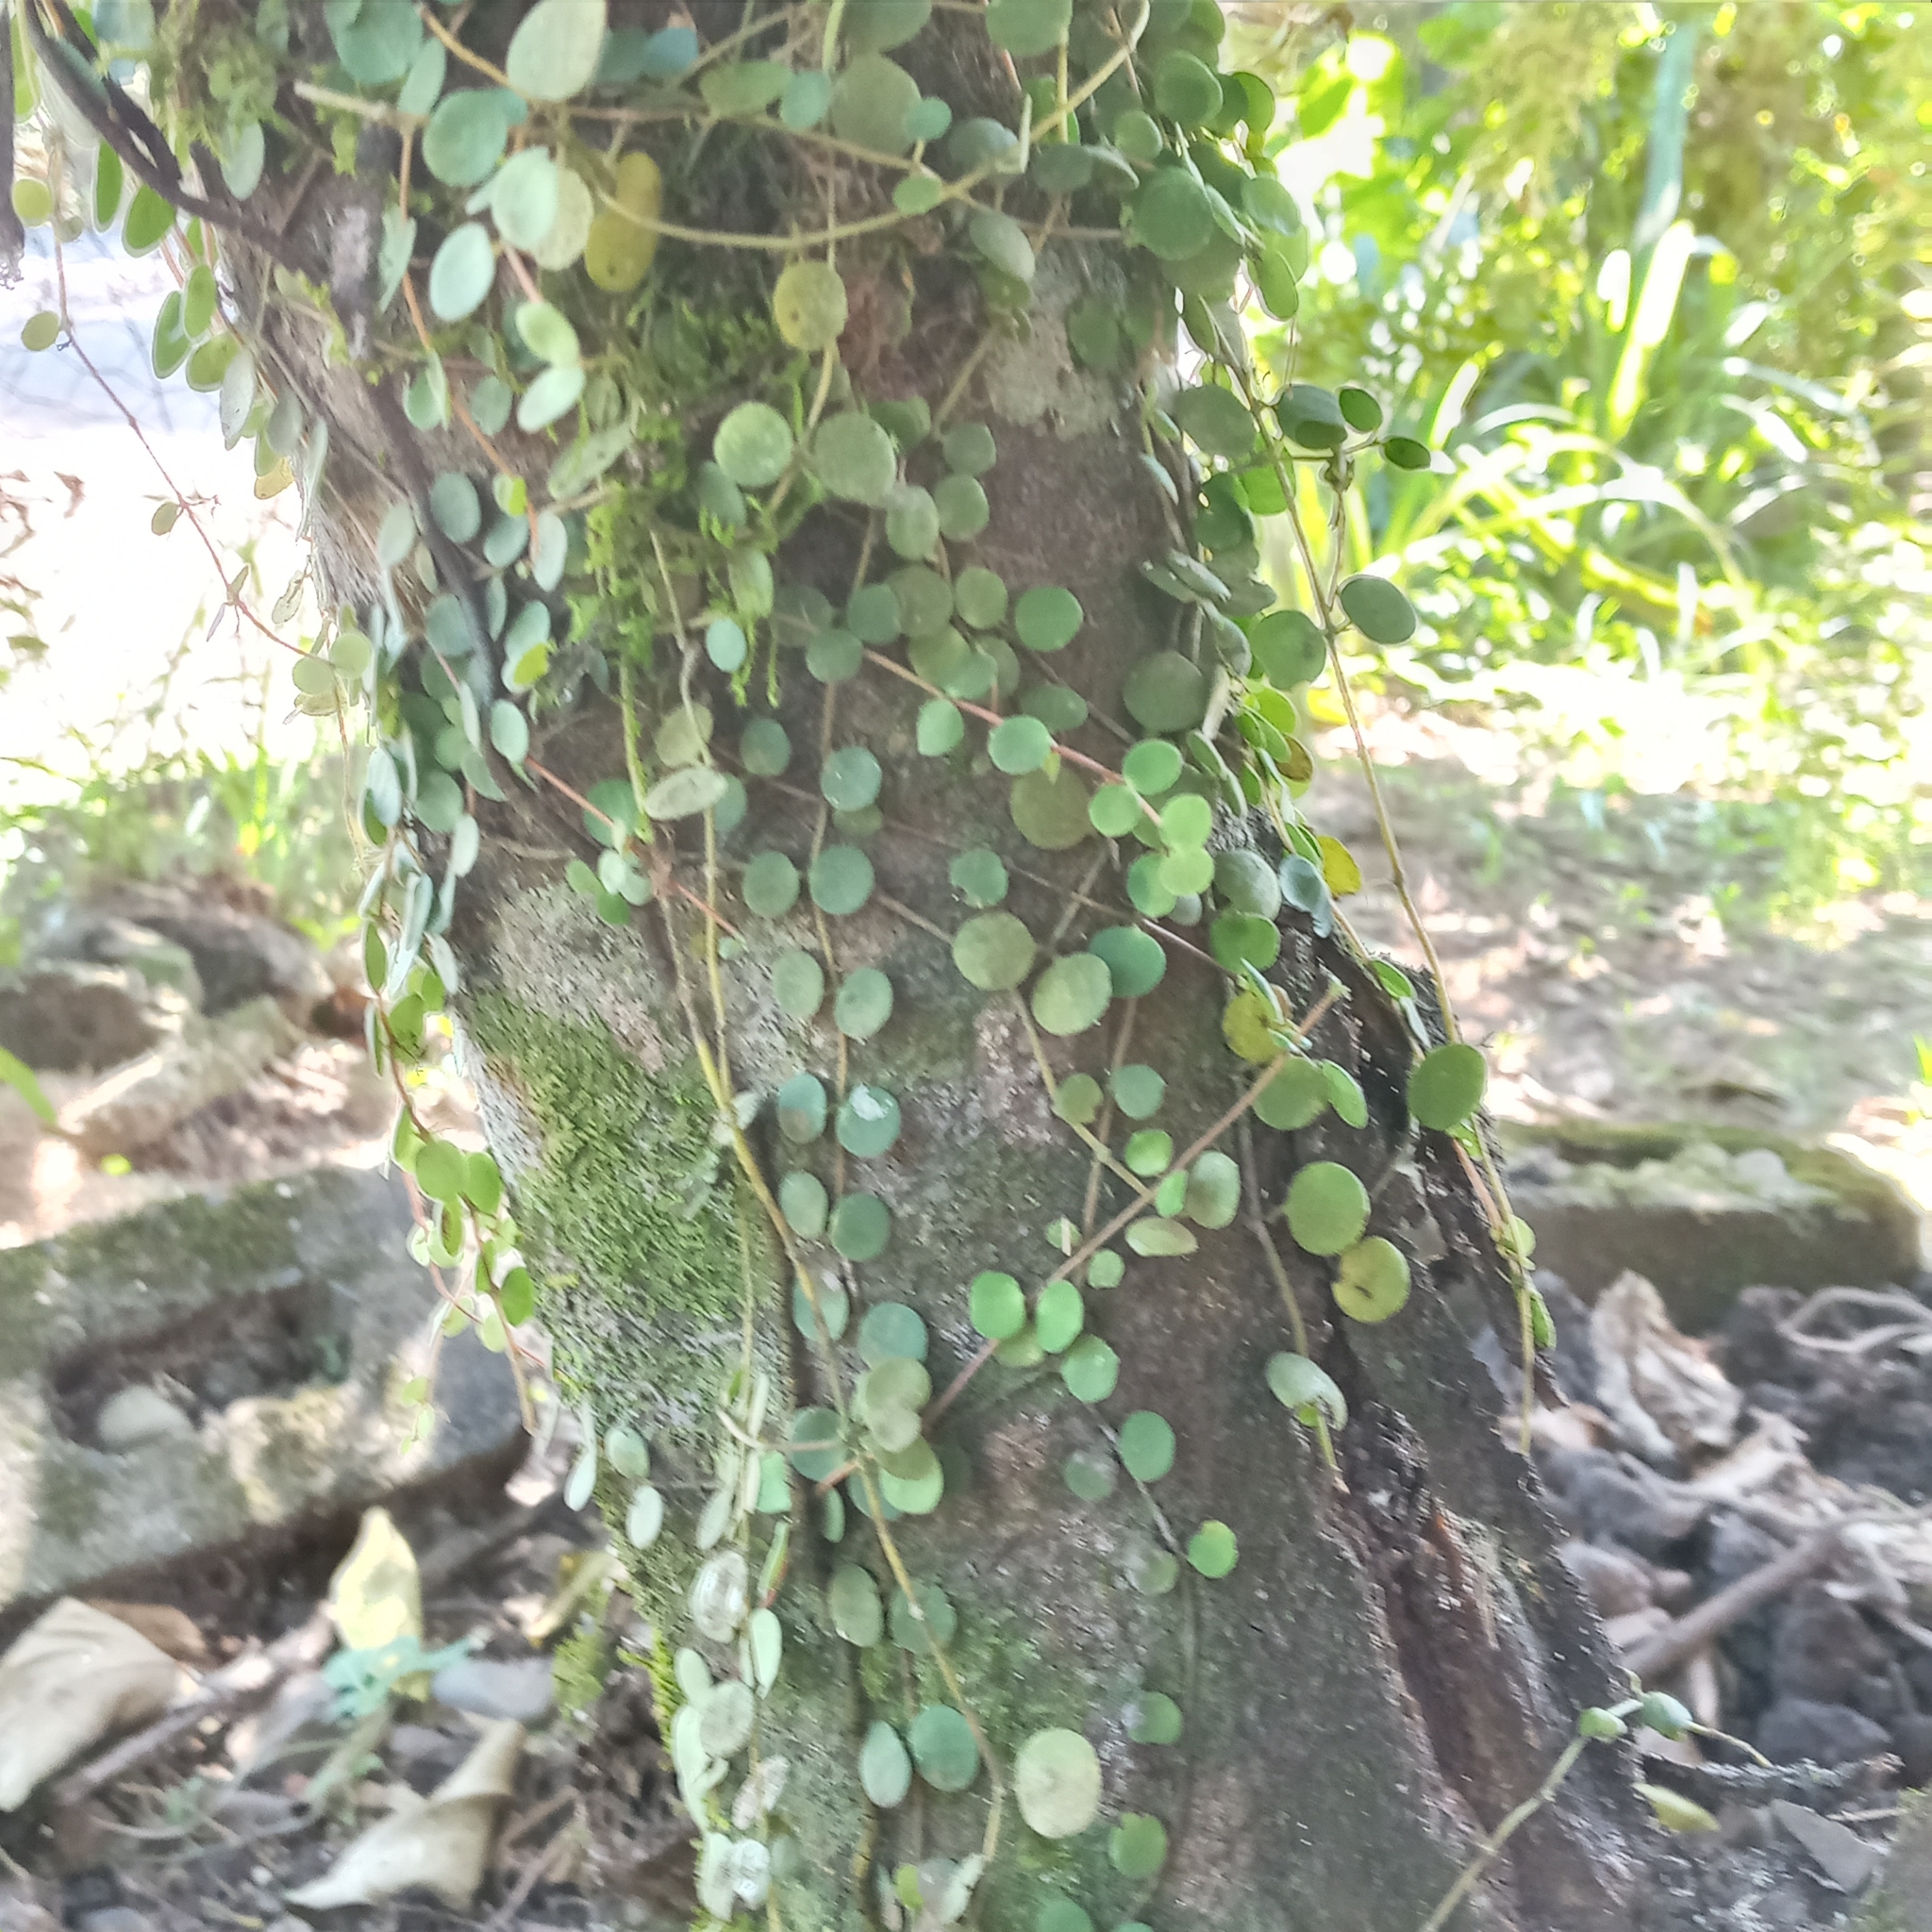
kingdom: Plantae
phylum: Tracheophyta
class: Magnoliopsida
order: Piperales
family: Piperaceae
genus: Peperomia
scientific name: Peperomia cyclophylla
